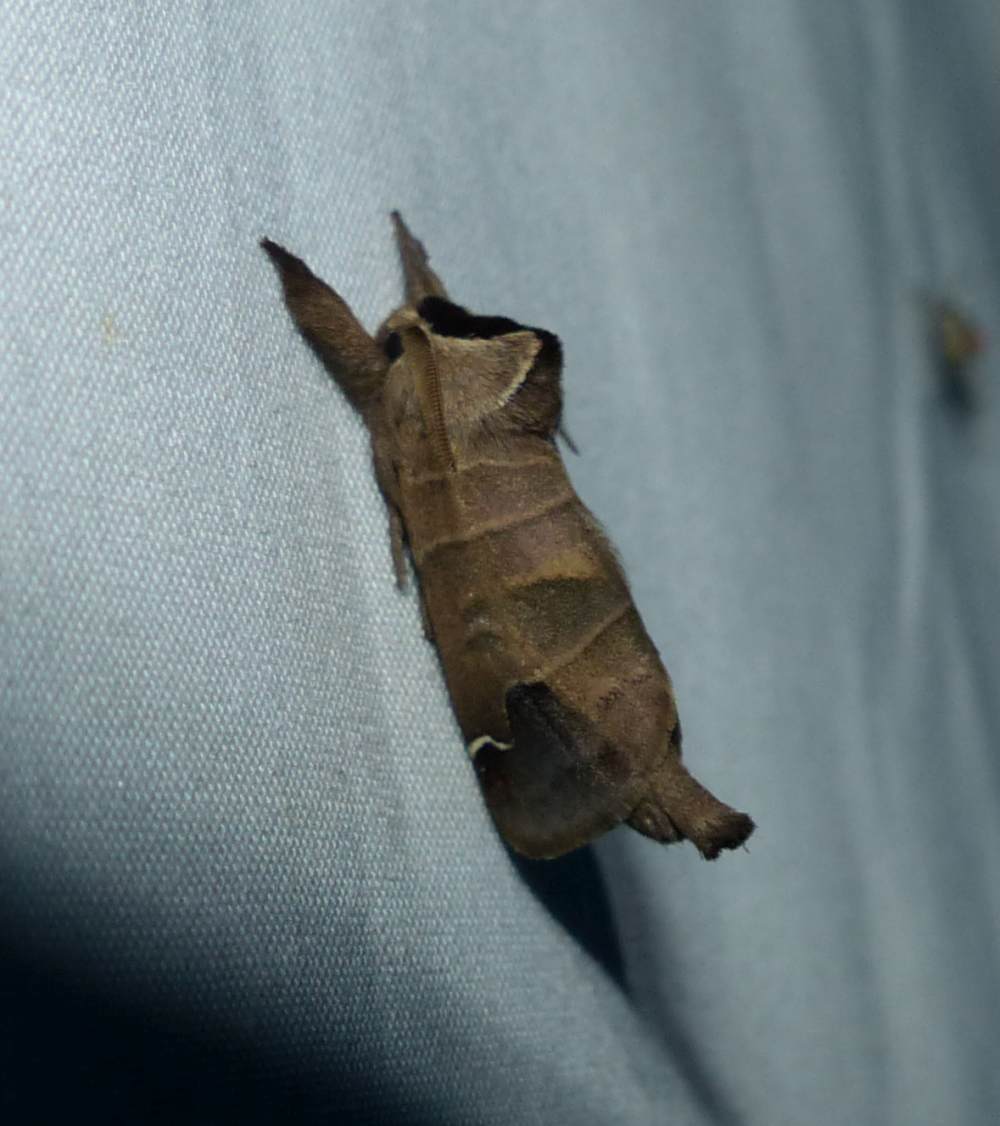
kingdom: Animalia
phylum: Arthropoda
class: Insecta
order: Lepidoptera
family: Notodontidae
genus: Clostera
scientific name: Clostera albosigma
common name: Sigmoid prominent
